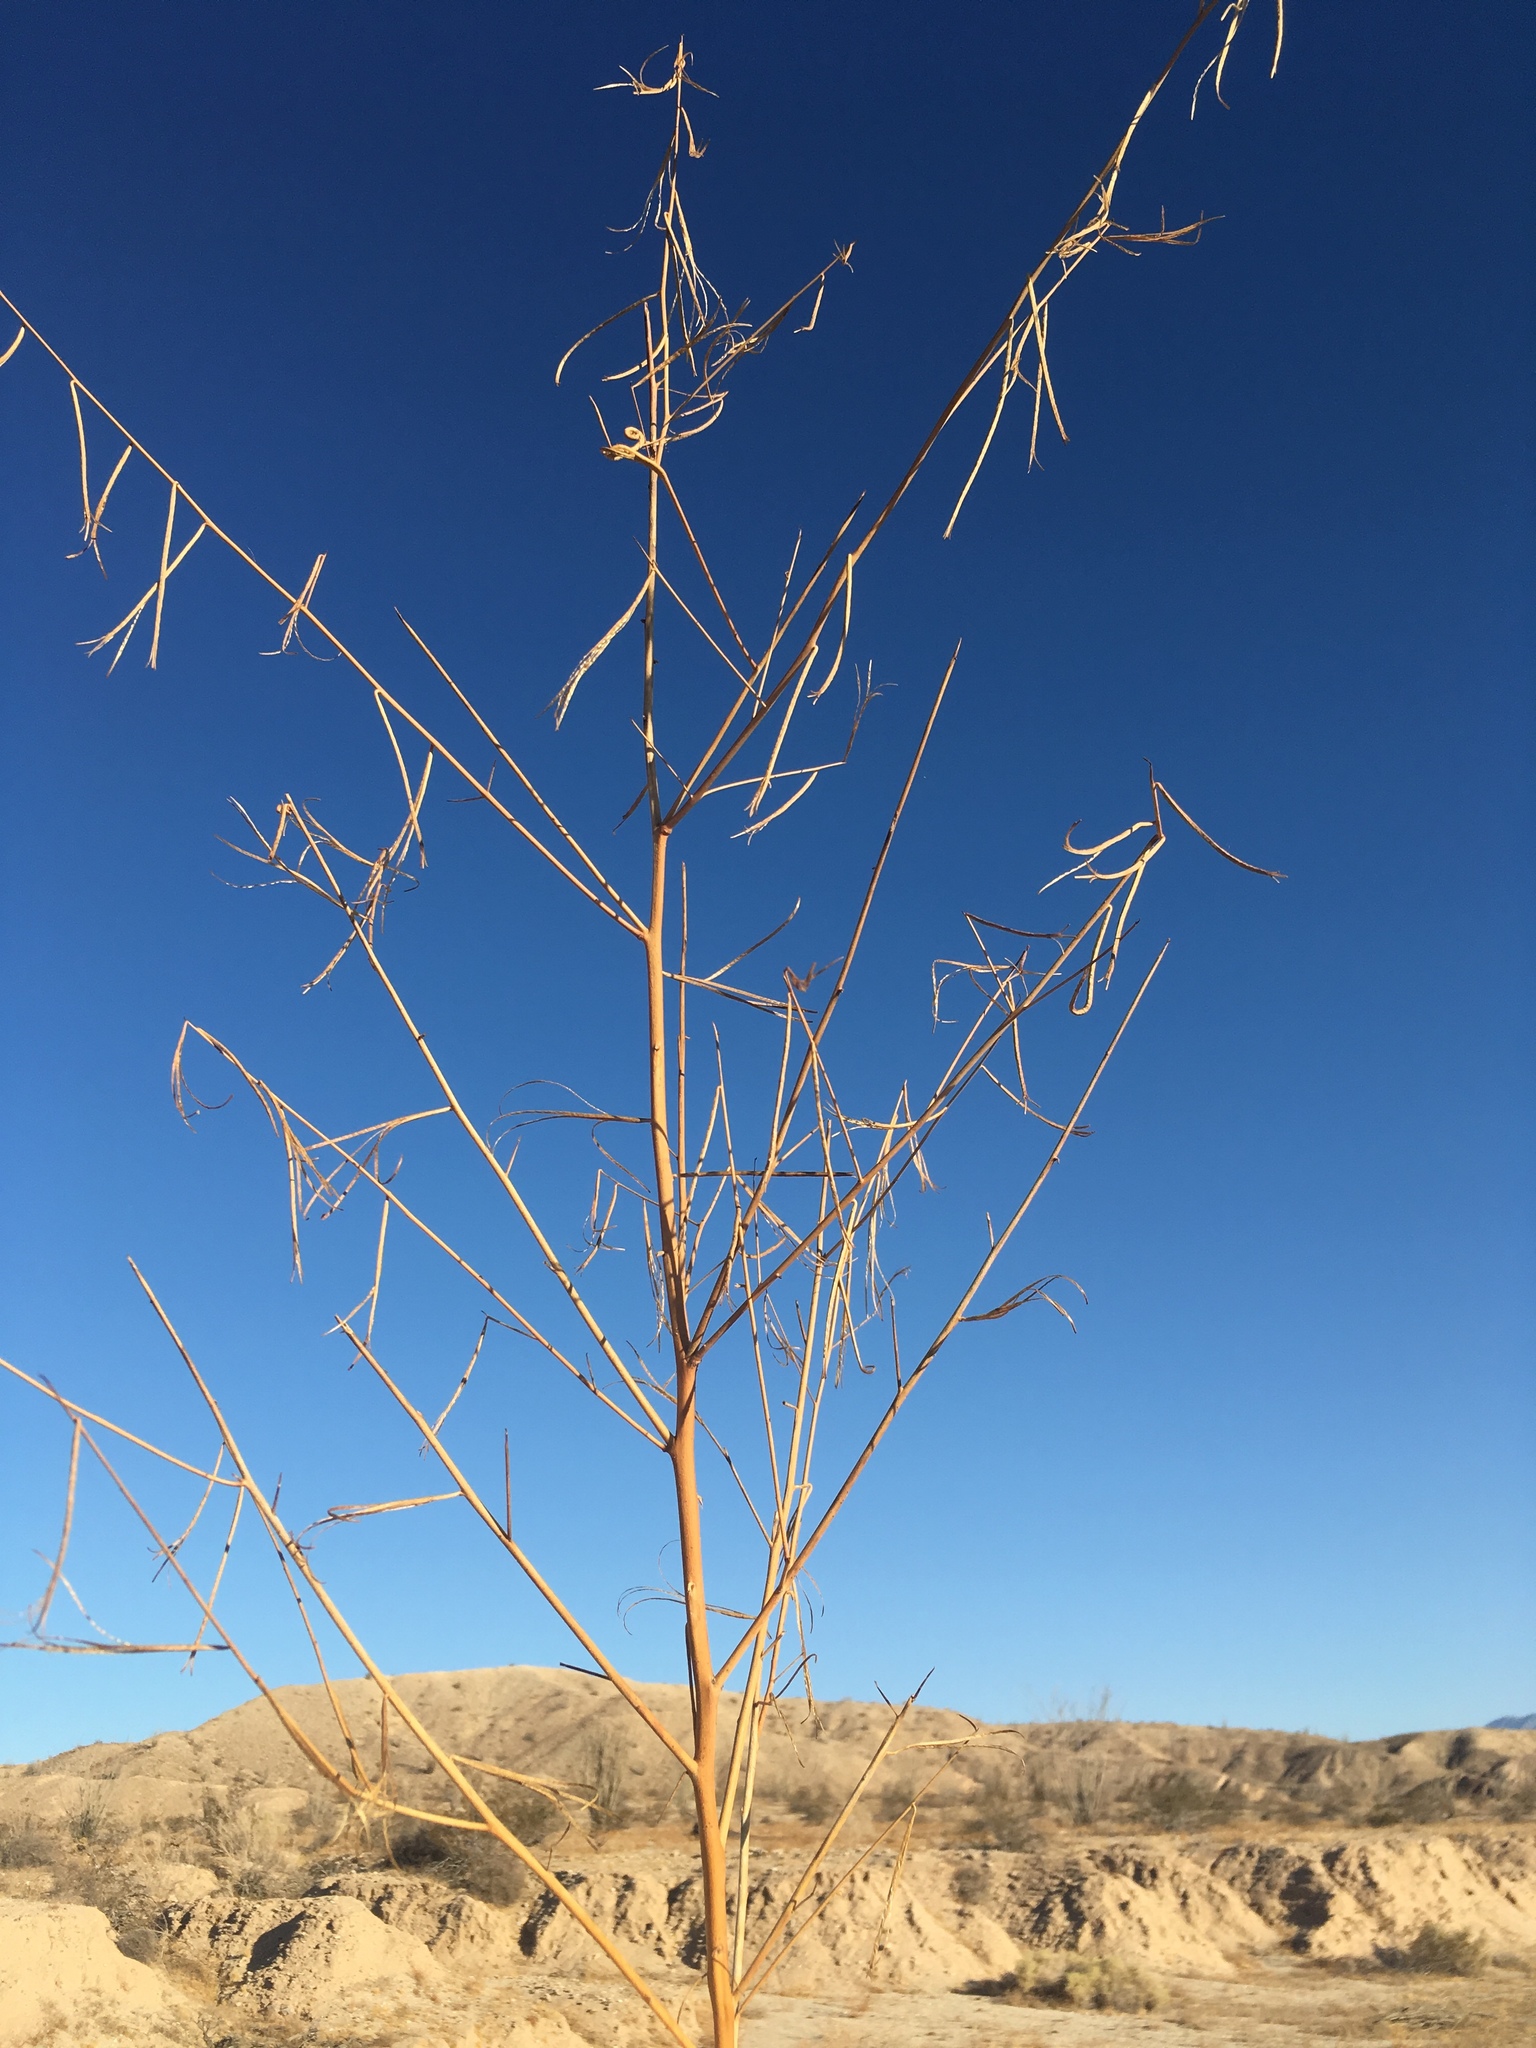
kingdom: Plantae
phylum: Tracheophyta
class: Magnoliopsida
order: Myrtales
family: Onagraceae
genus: Eulobus
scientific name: Eulobus californicus
